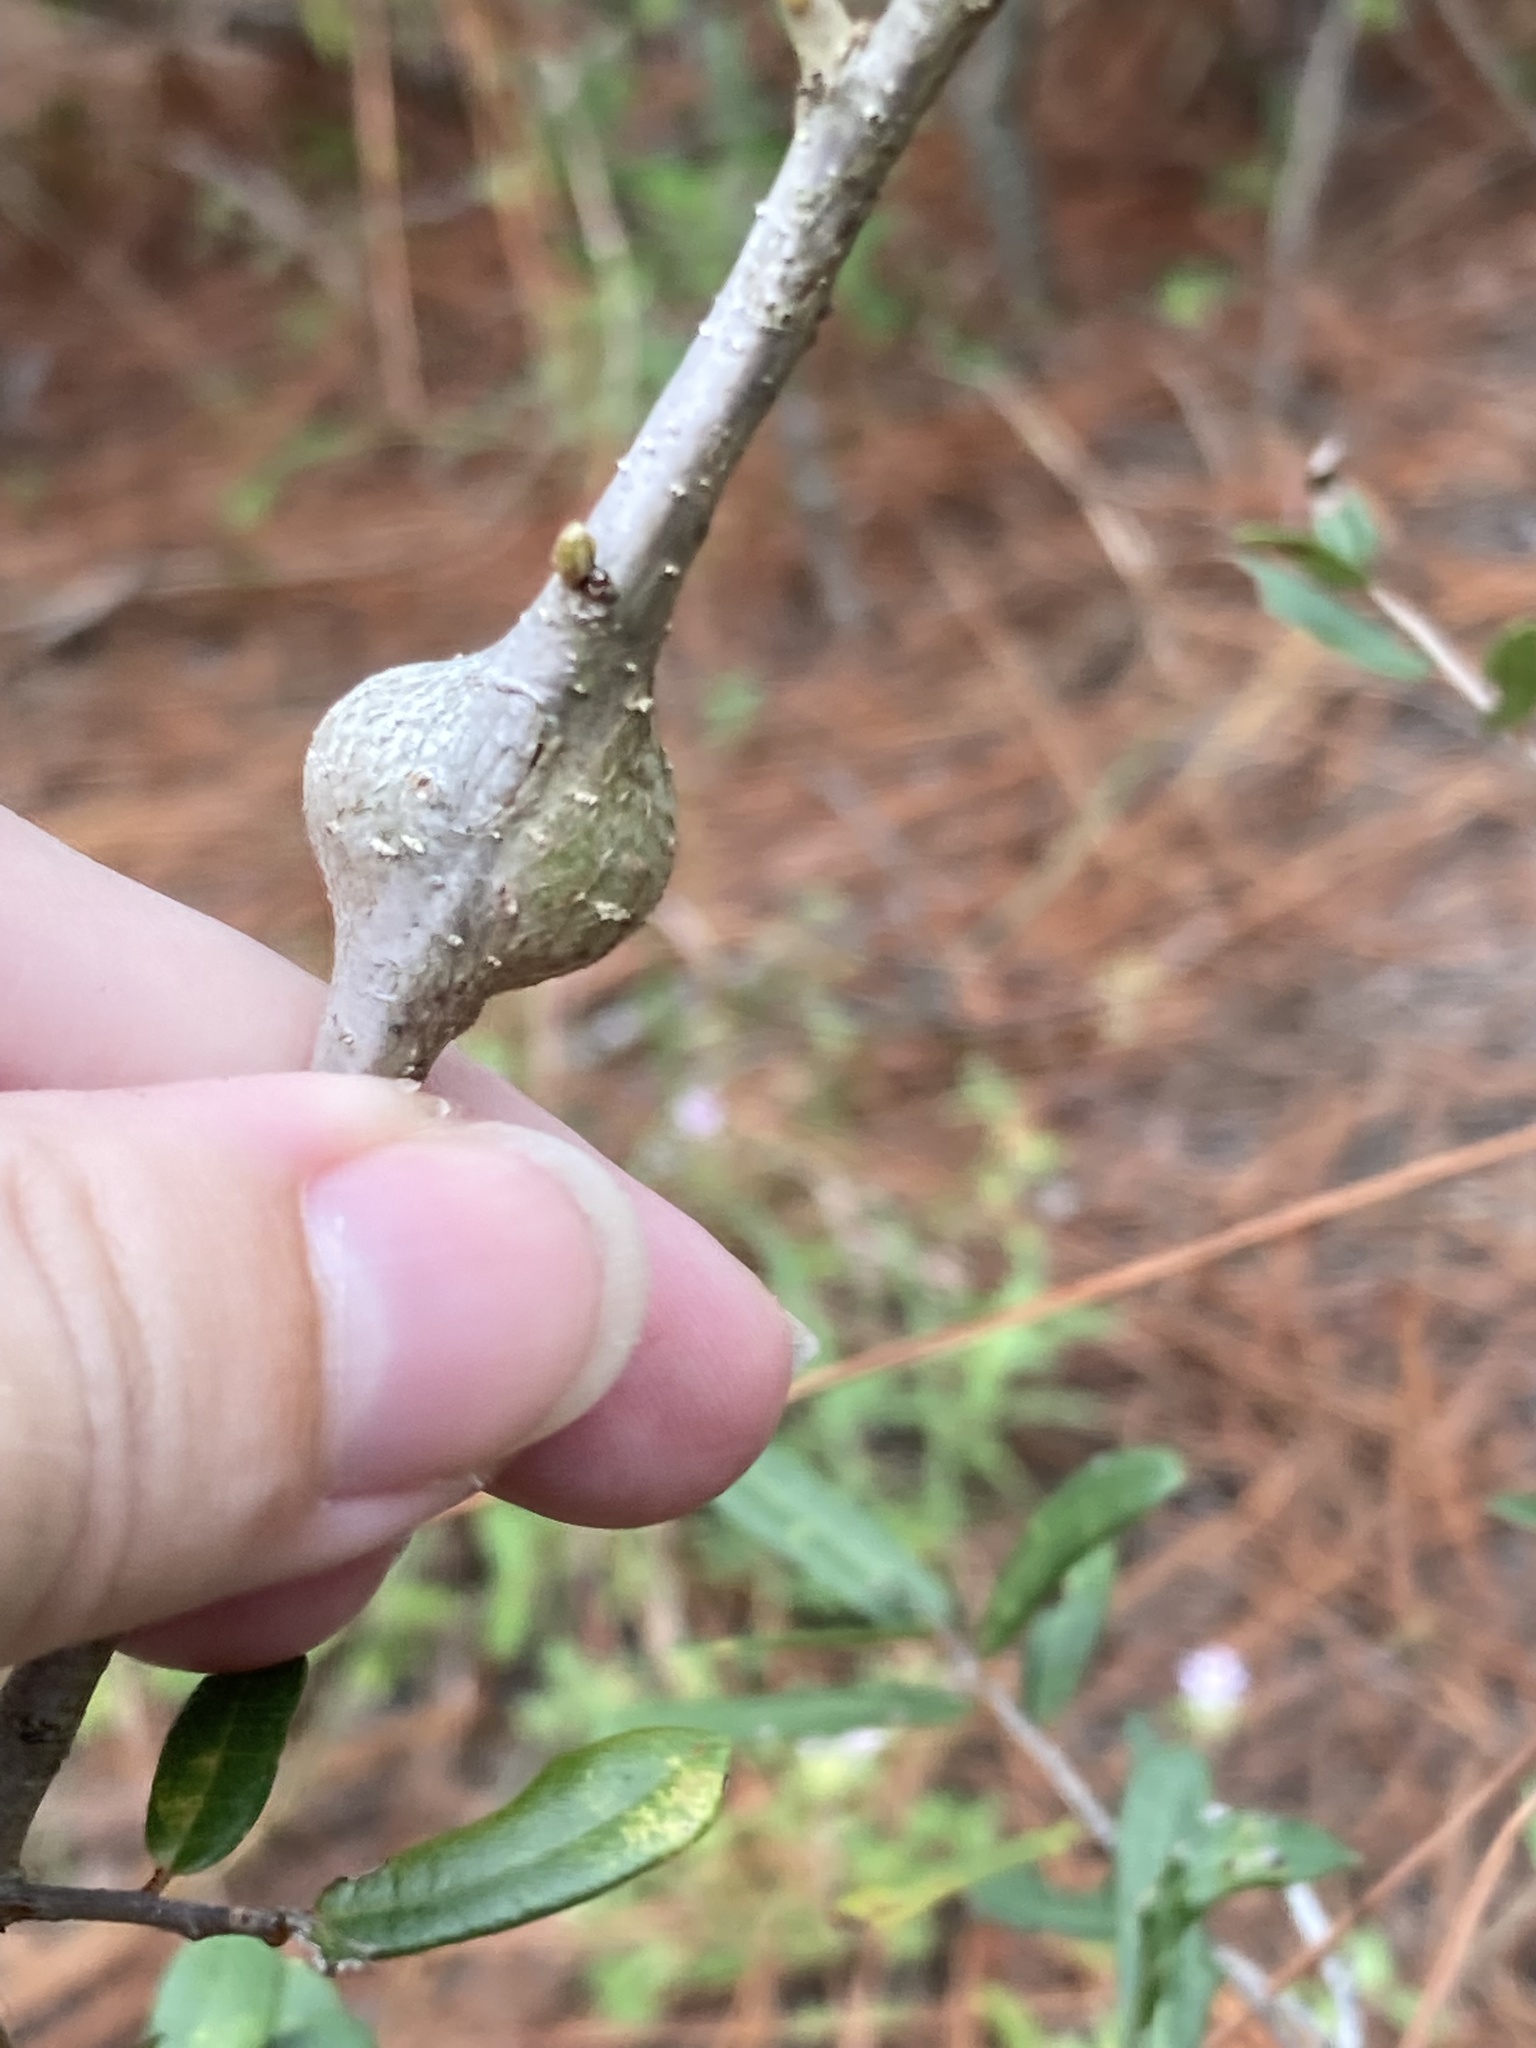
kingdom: Animalia
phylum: Arthropoda
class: Insecta
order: Hymenoptera
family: Cynipidae
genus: Callirhytis
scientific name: Callirhytis
